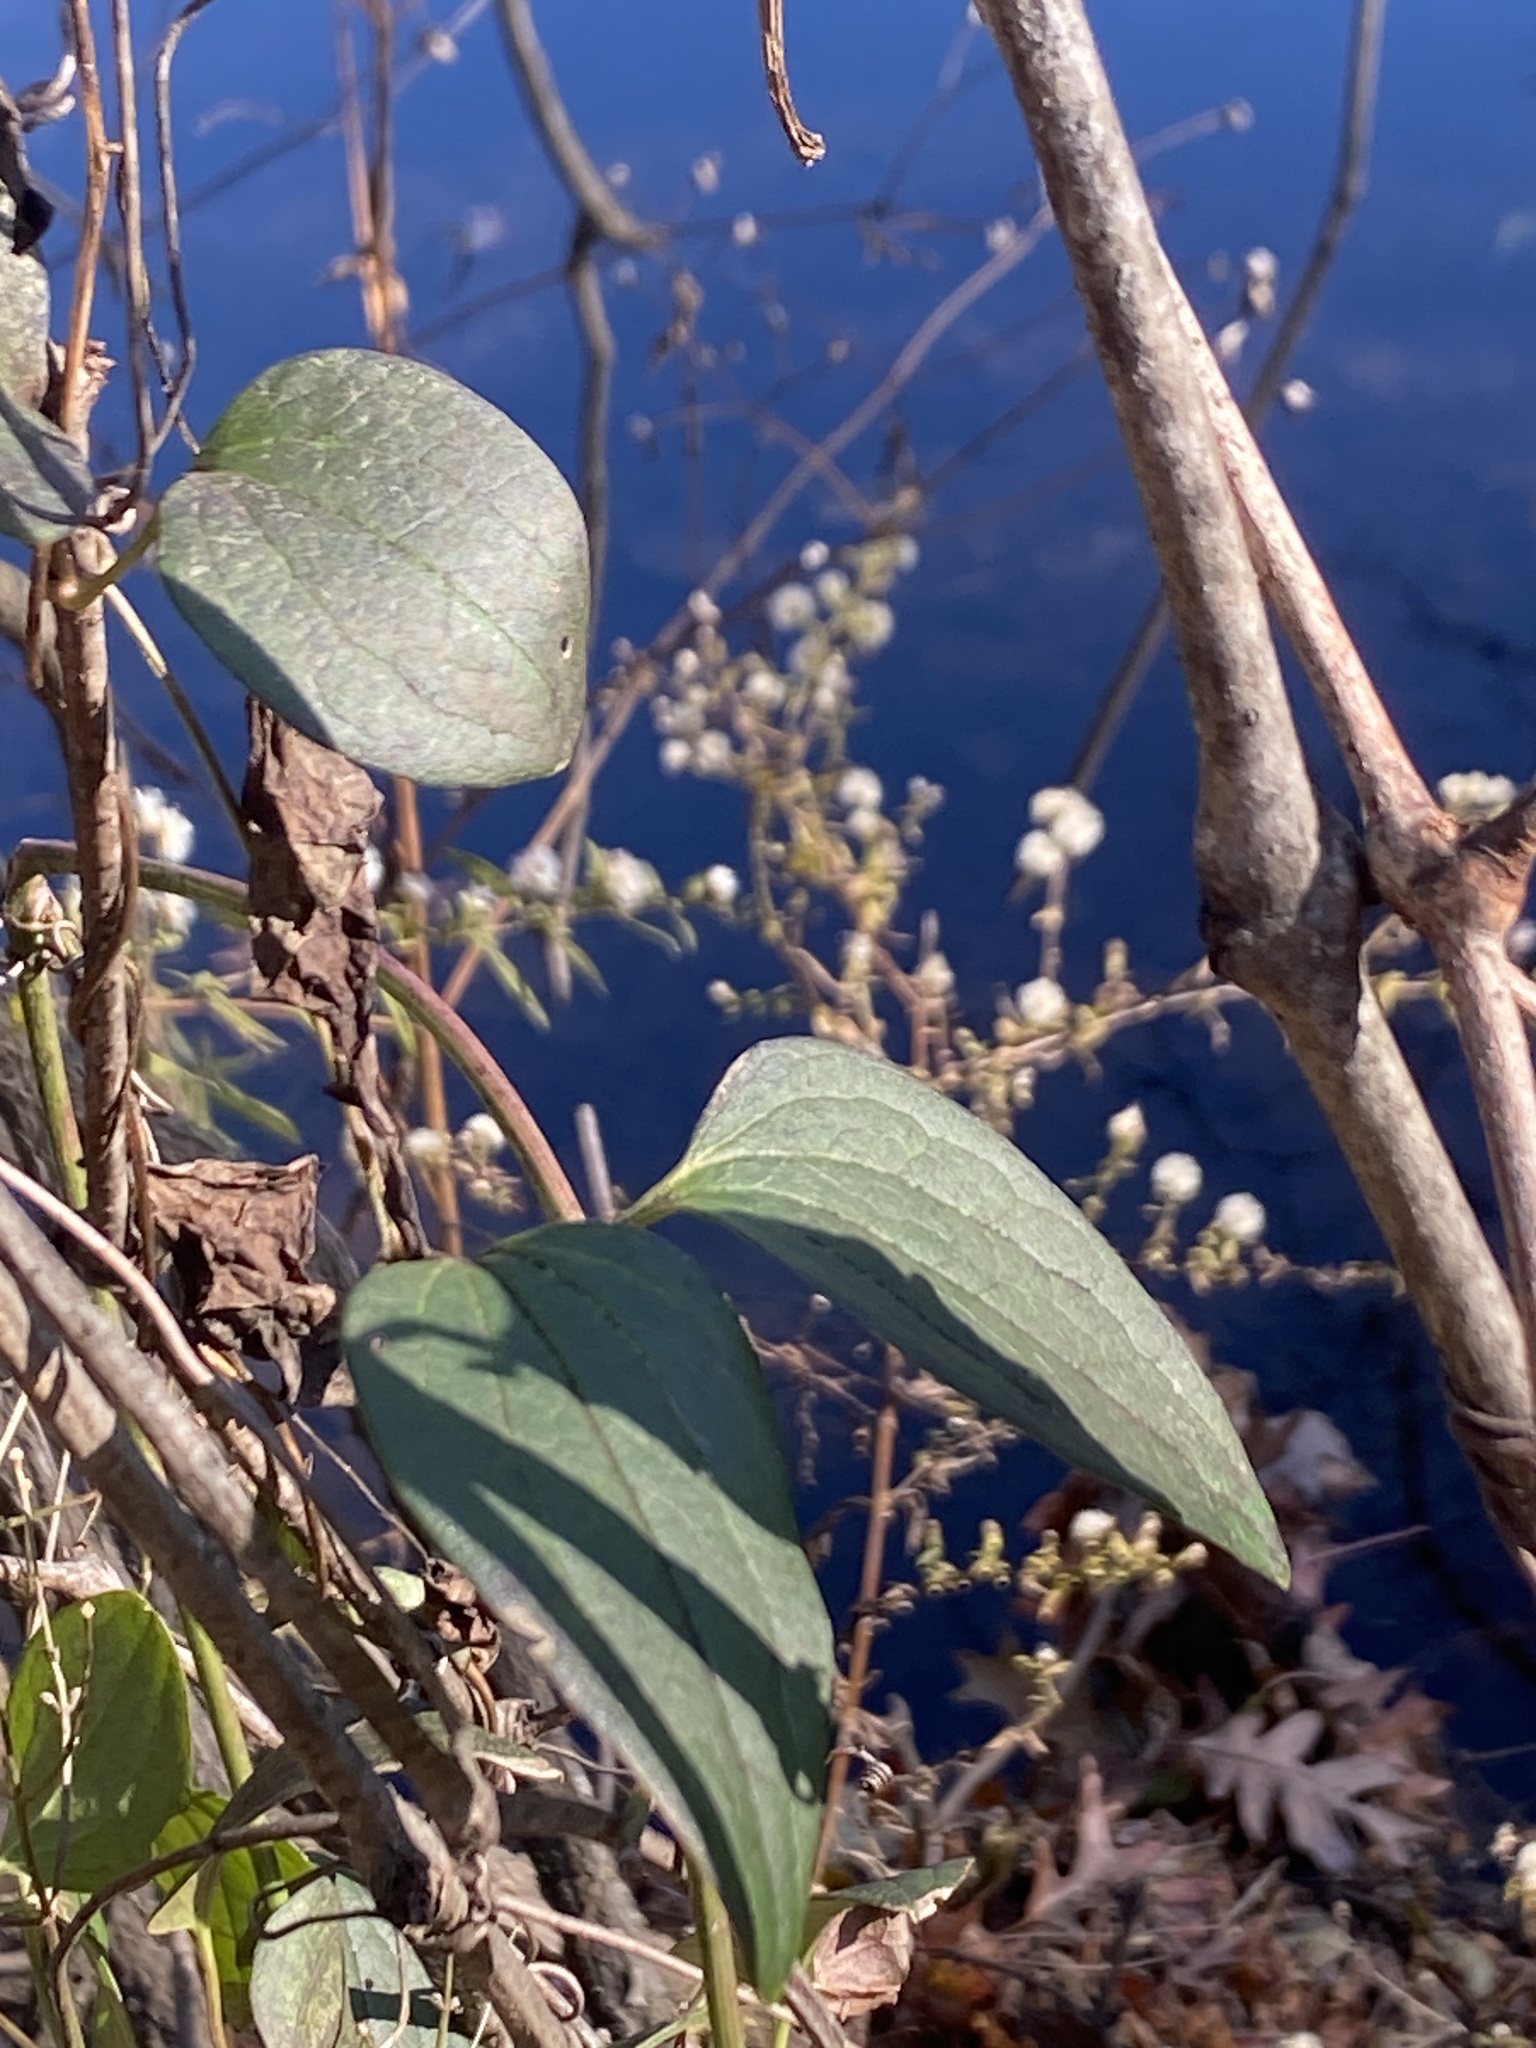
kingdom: Plantae
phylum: Tracheophyta
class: Magnoliopsida
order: Ranunculales
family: Ranunculaceae
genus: Clematis
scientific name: Clematis terniflora
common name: Sweet autumn clematis
